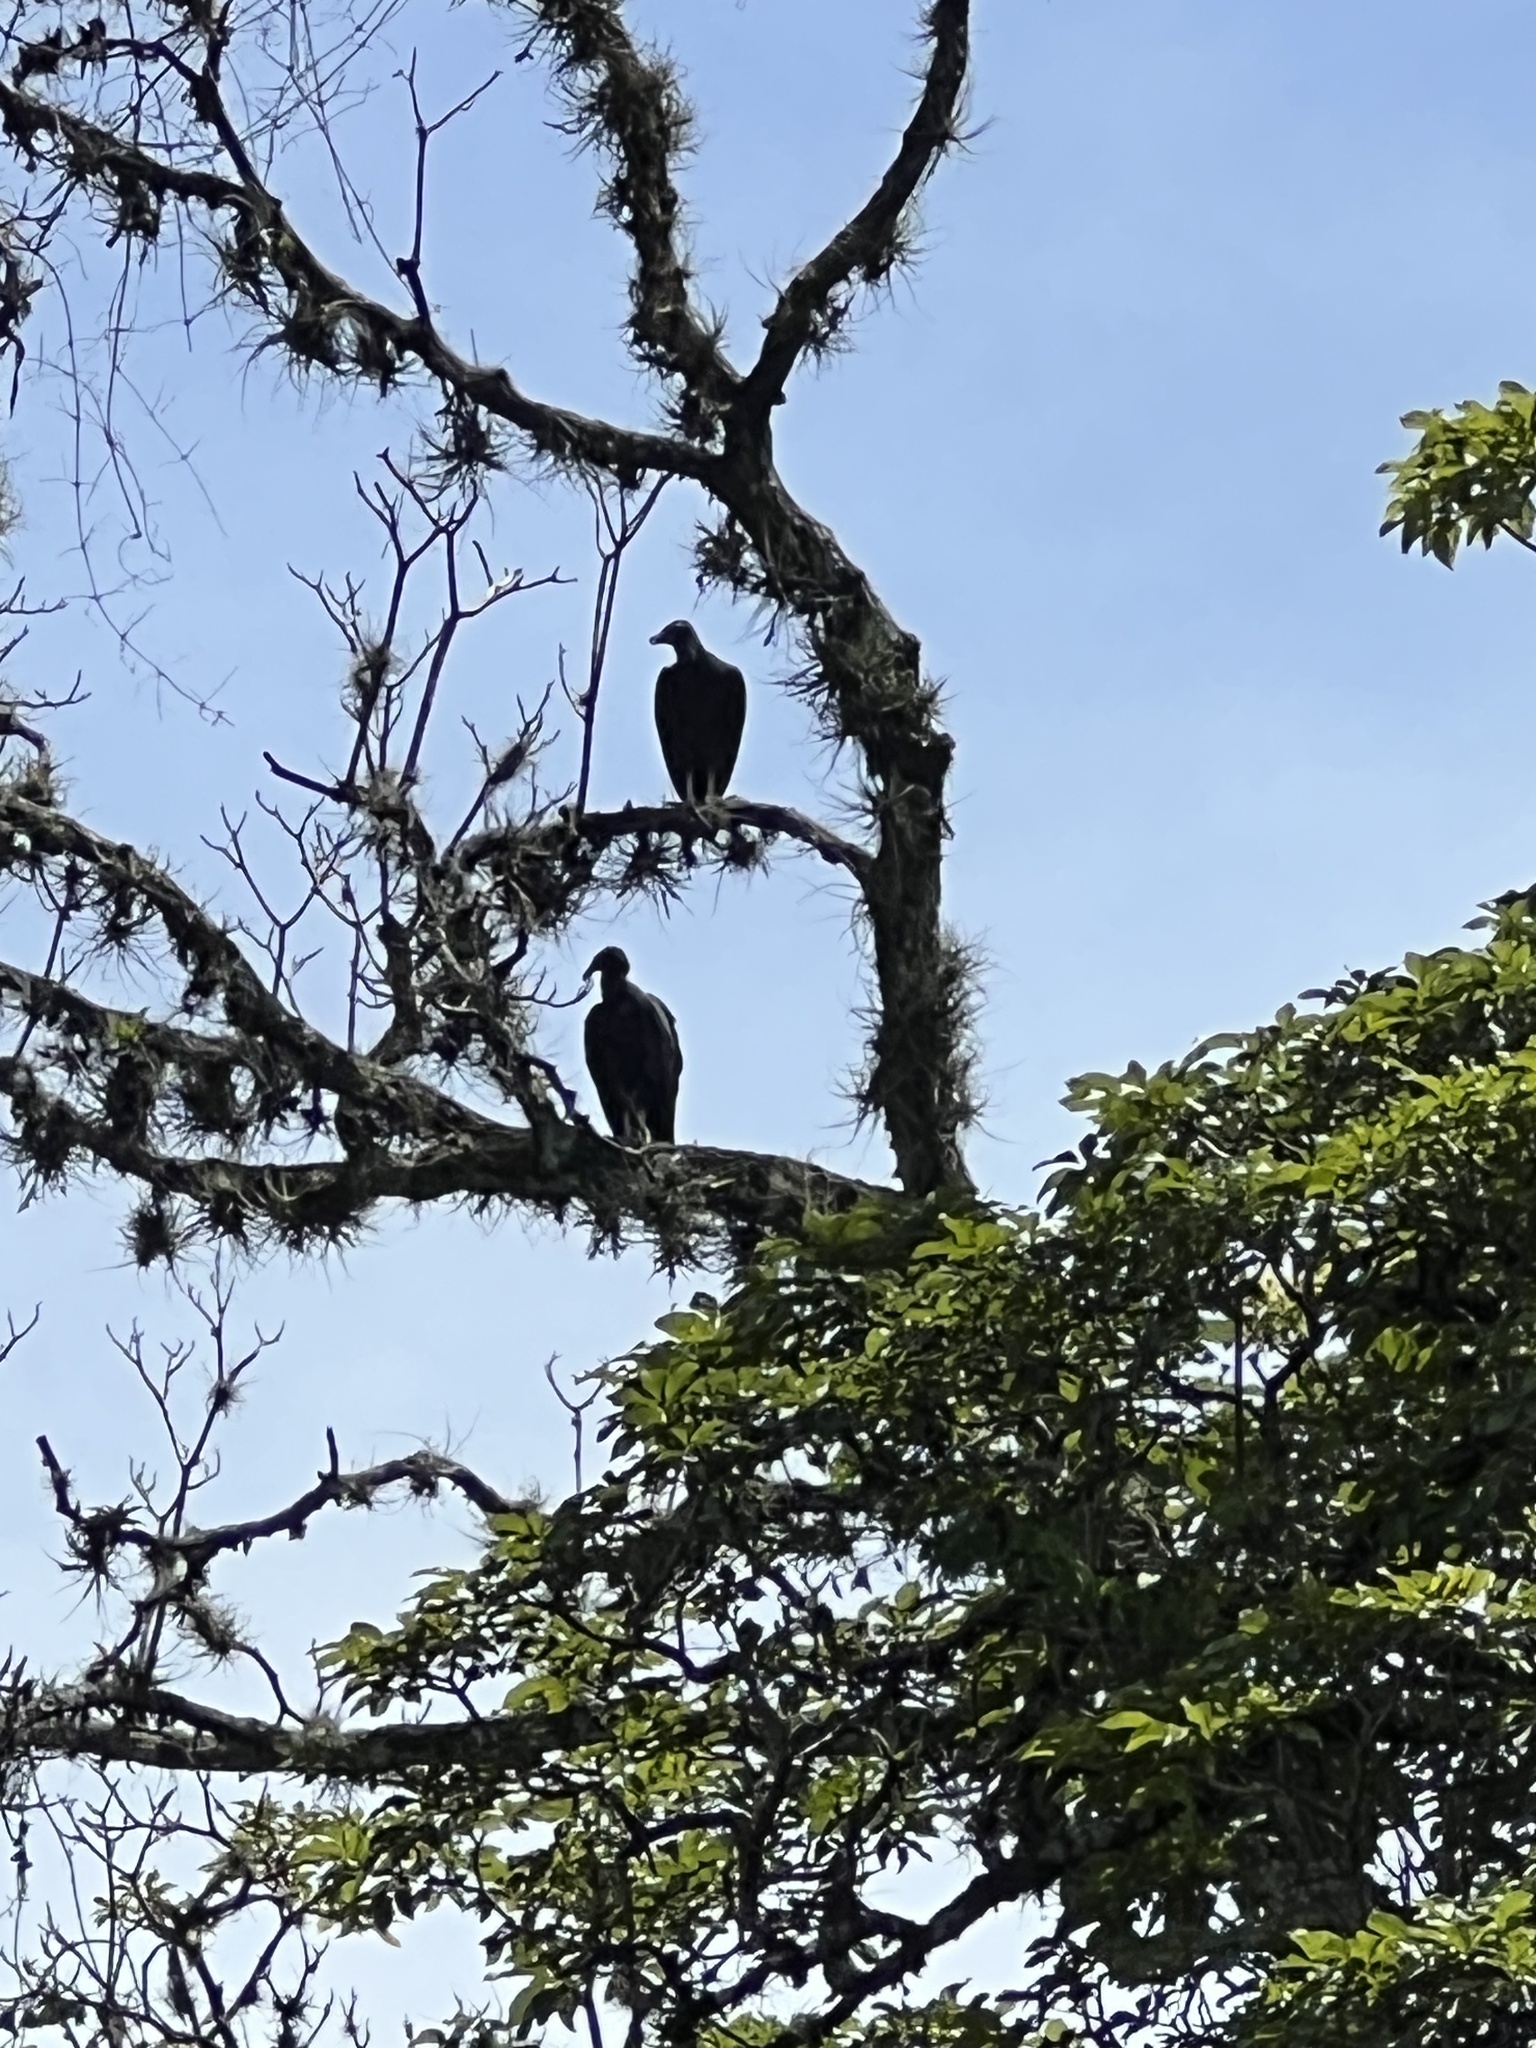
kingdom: Animalia
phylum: Chordata
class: Aves
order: Accipitriformes
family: Cathartidae
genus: Coragyps
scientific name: Coragyps atratus
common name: Black vulture
